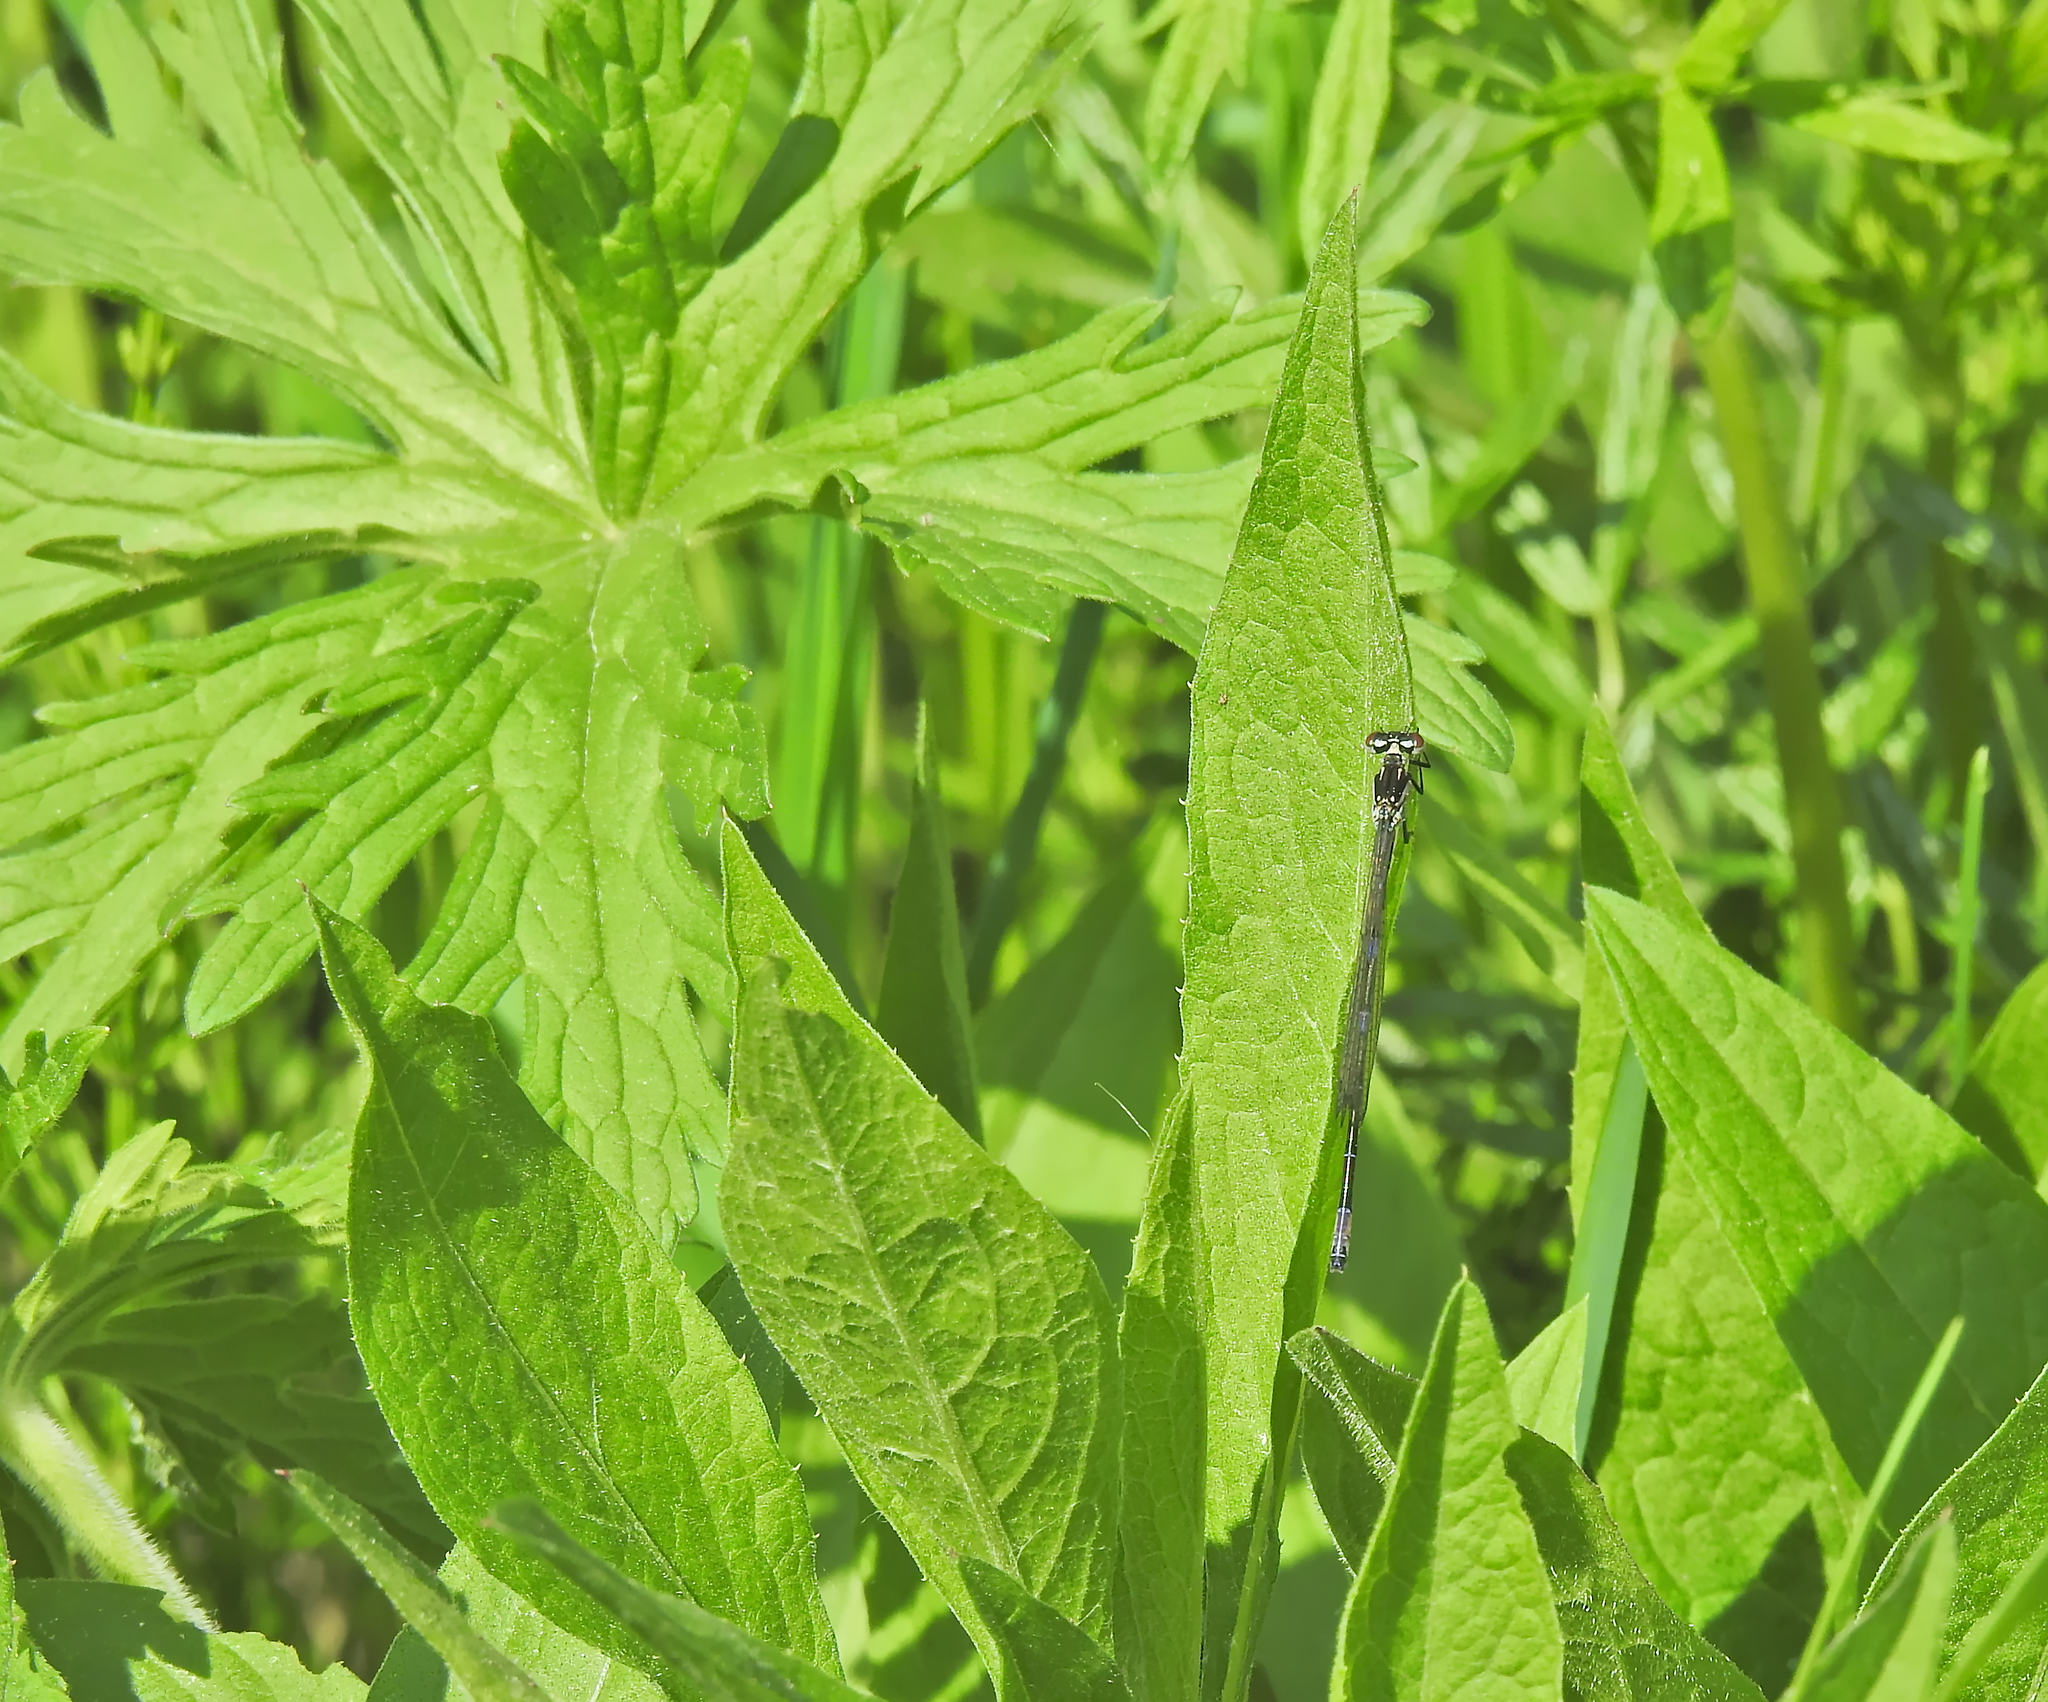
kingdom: Animalia
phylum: Arthropoda
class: Insecta
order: Odonata
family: Coenagrionidae
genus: Coenagrion
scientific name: Coenagrion pulchellum
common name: Variable bluet
